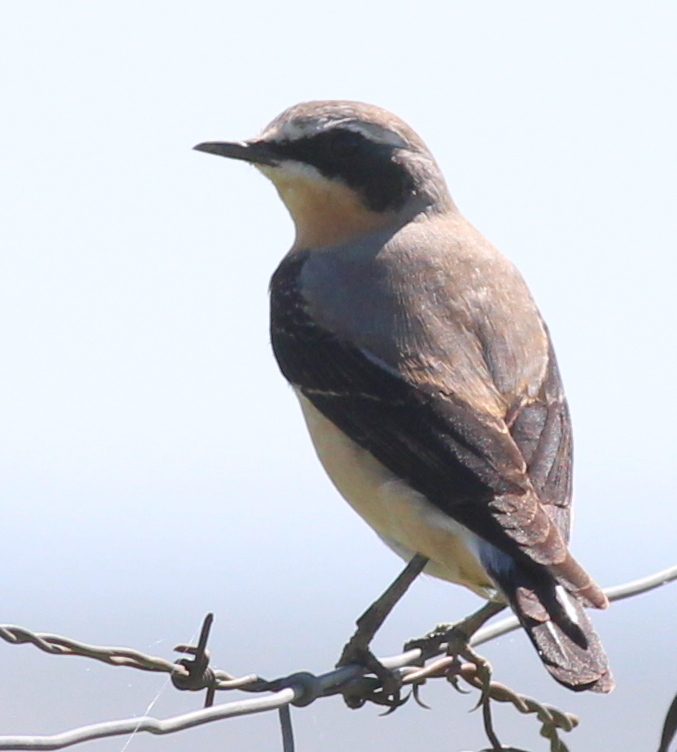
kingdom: Animalia
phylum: Chordata
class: Aves
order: Passeriformes
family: Muscicapidae
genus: Oenanthe
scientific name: Oenanthe oenanthe
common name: Northern wheatear
